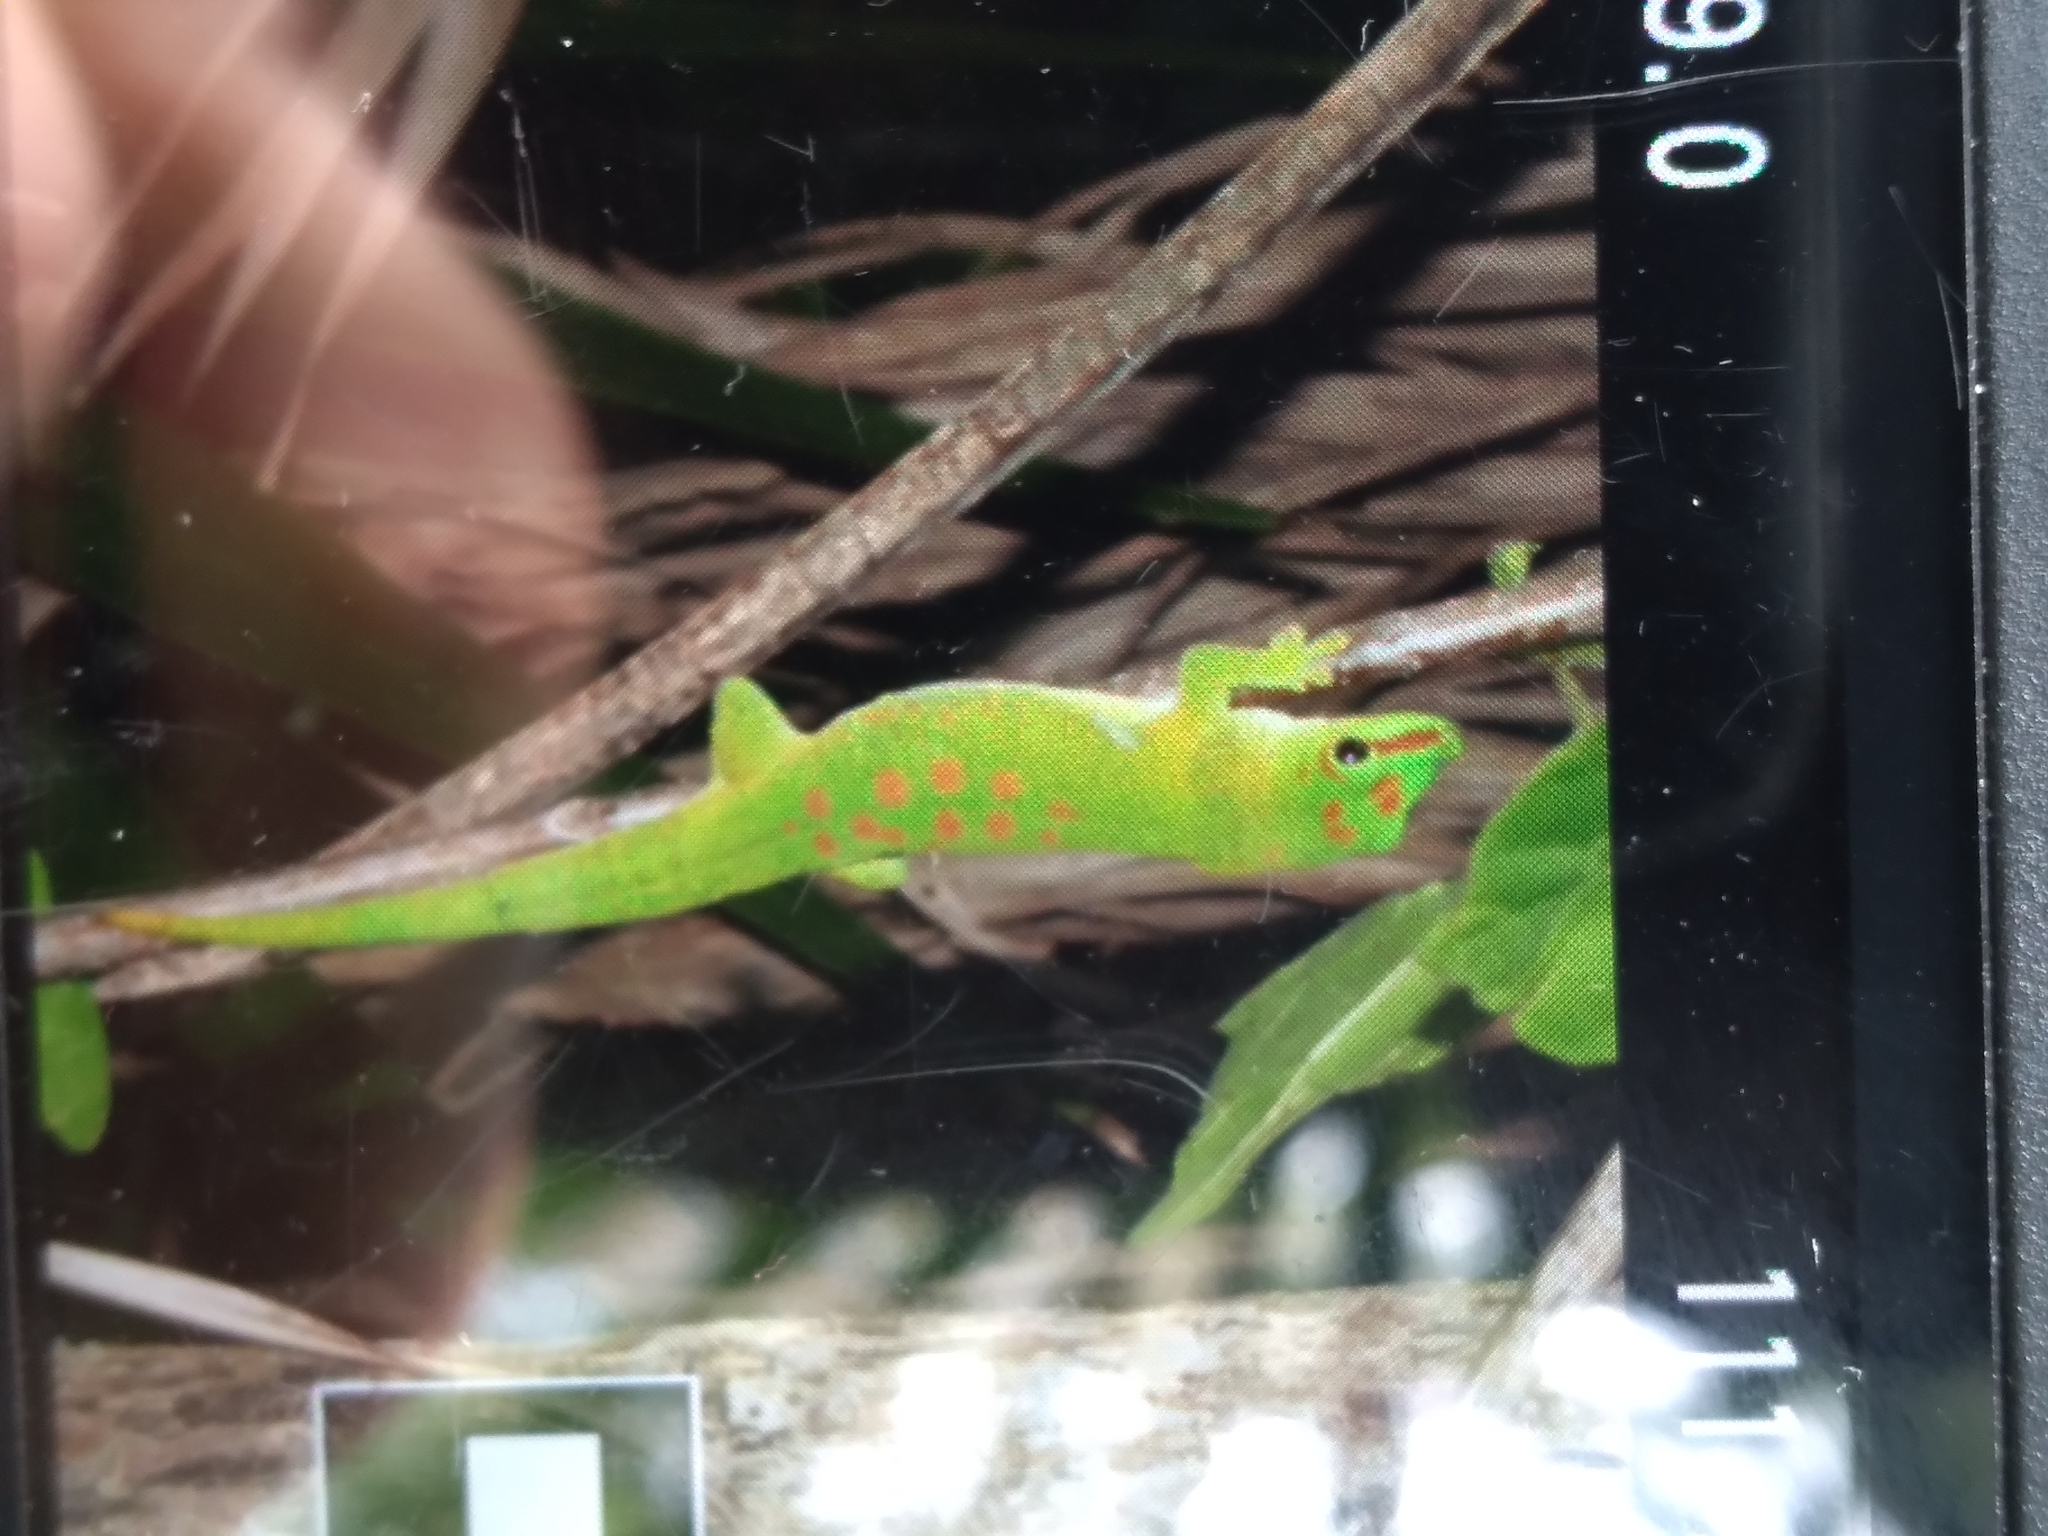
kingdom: Animalia
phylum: Chordata
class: Squamata
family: Gekkonidae
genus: Phelsuma
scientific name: Phelsuma grandis
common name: Madagascar giant day gecko
